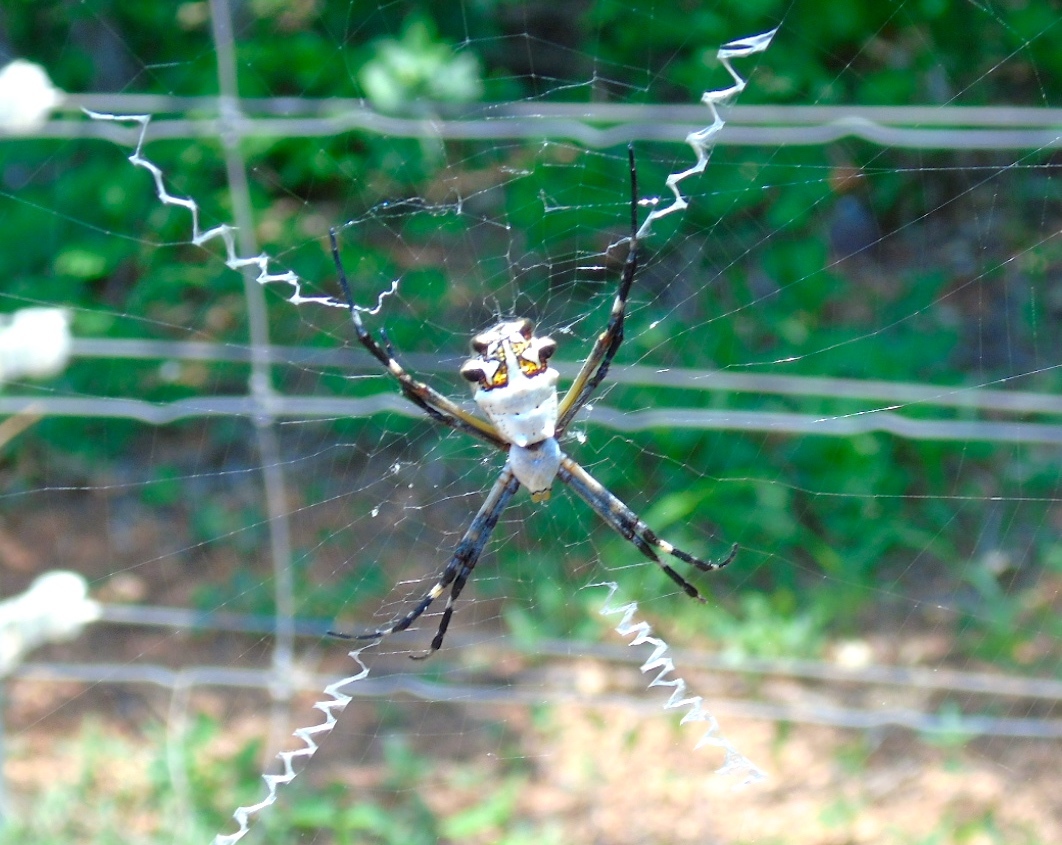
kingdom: Animalia
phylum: Arthropoda
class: Arachnida
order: Araneae
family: Araneidae
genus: Argiope
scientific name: Argiope argentata
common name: Orb weavers
